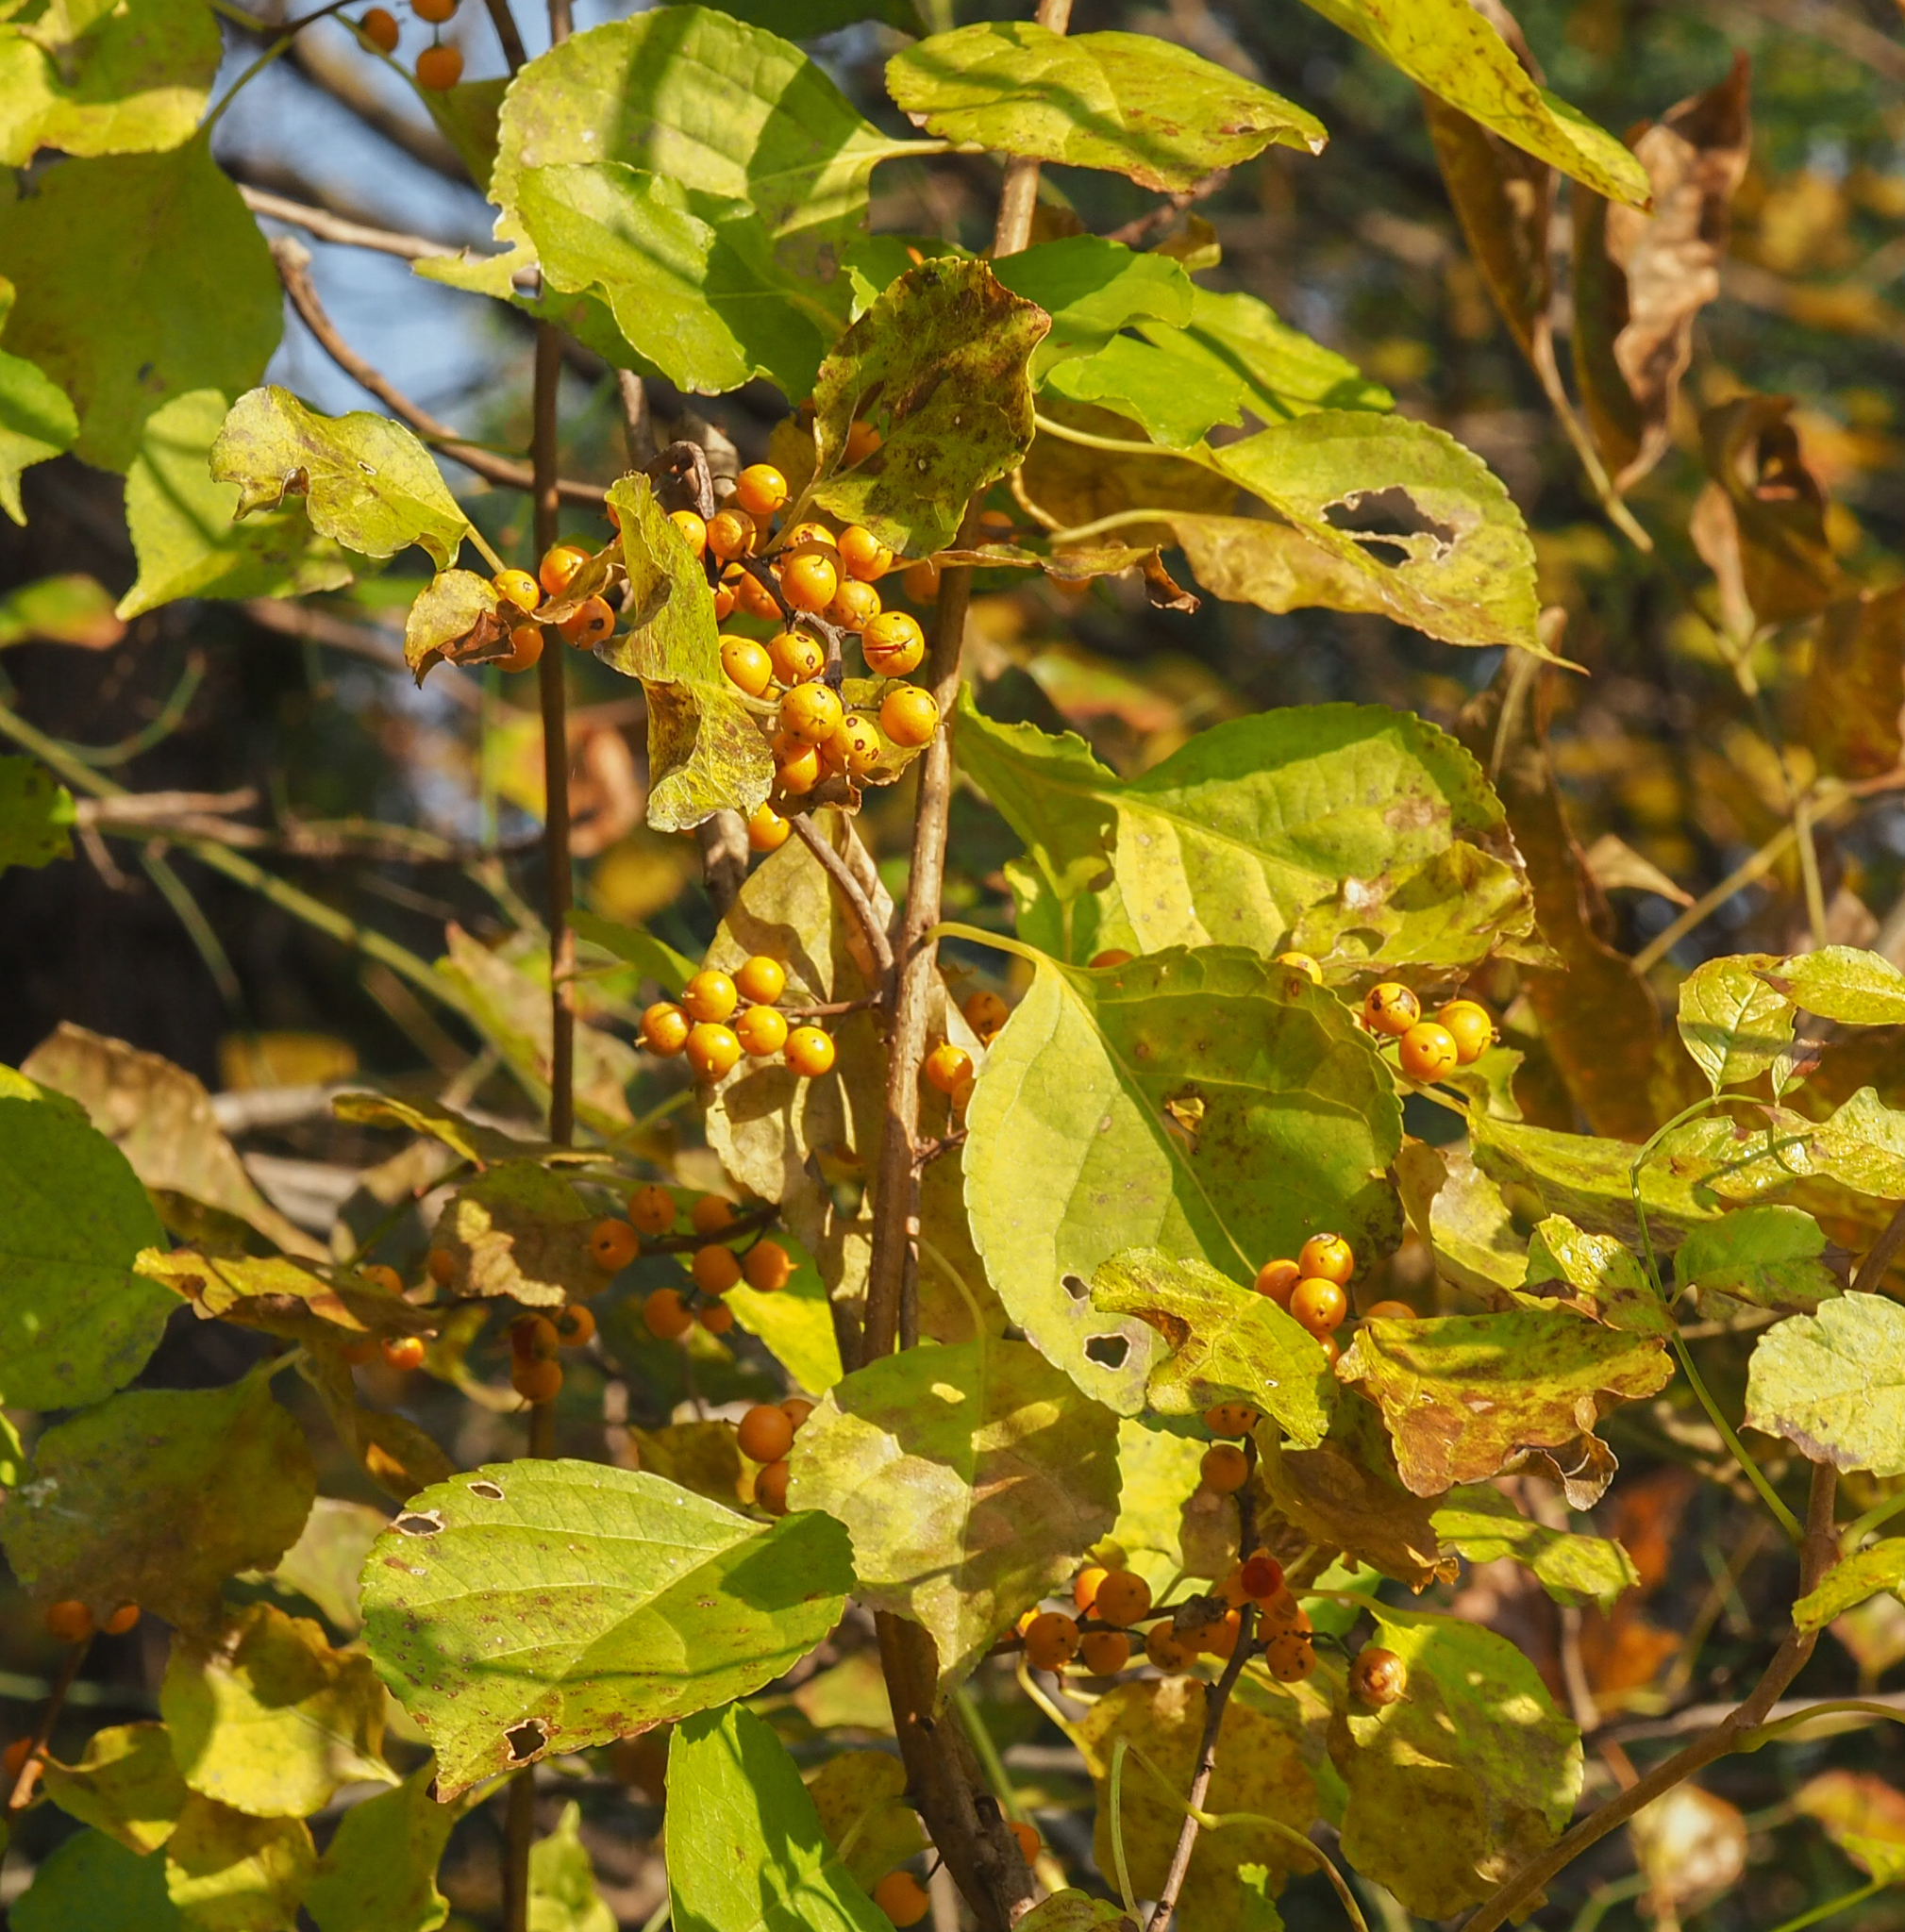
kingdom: Plantae
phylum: Tracheophyta
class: Magnoliopsida
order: Celastrales
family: Celastraceae
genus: Celastrus
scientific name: Celastrus orbiculatus
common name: Oriental bittersweet
